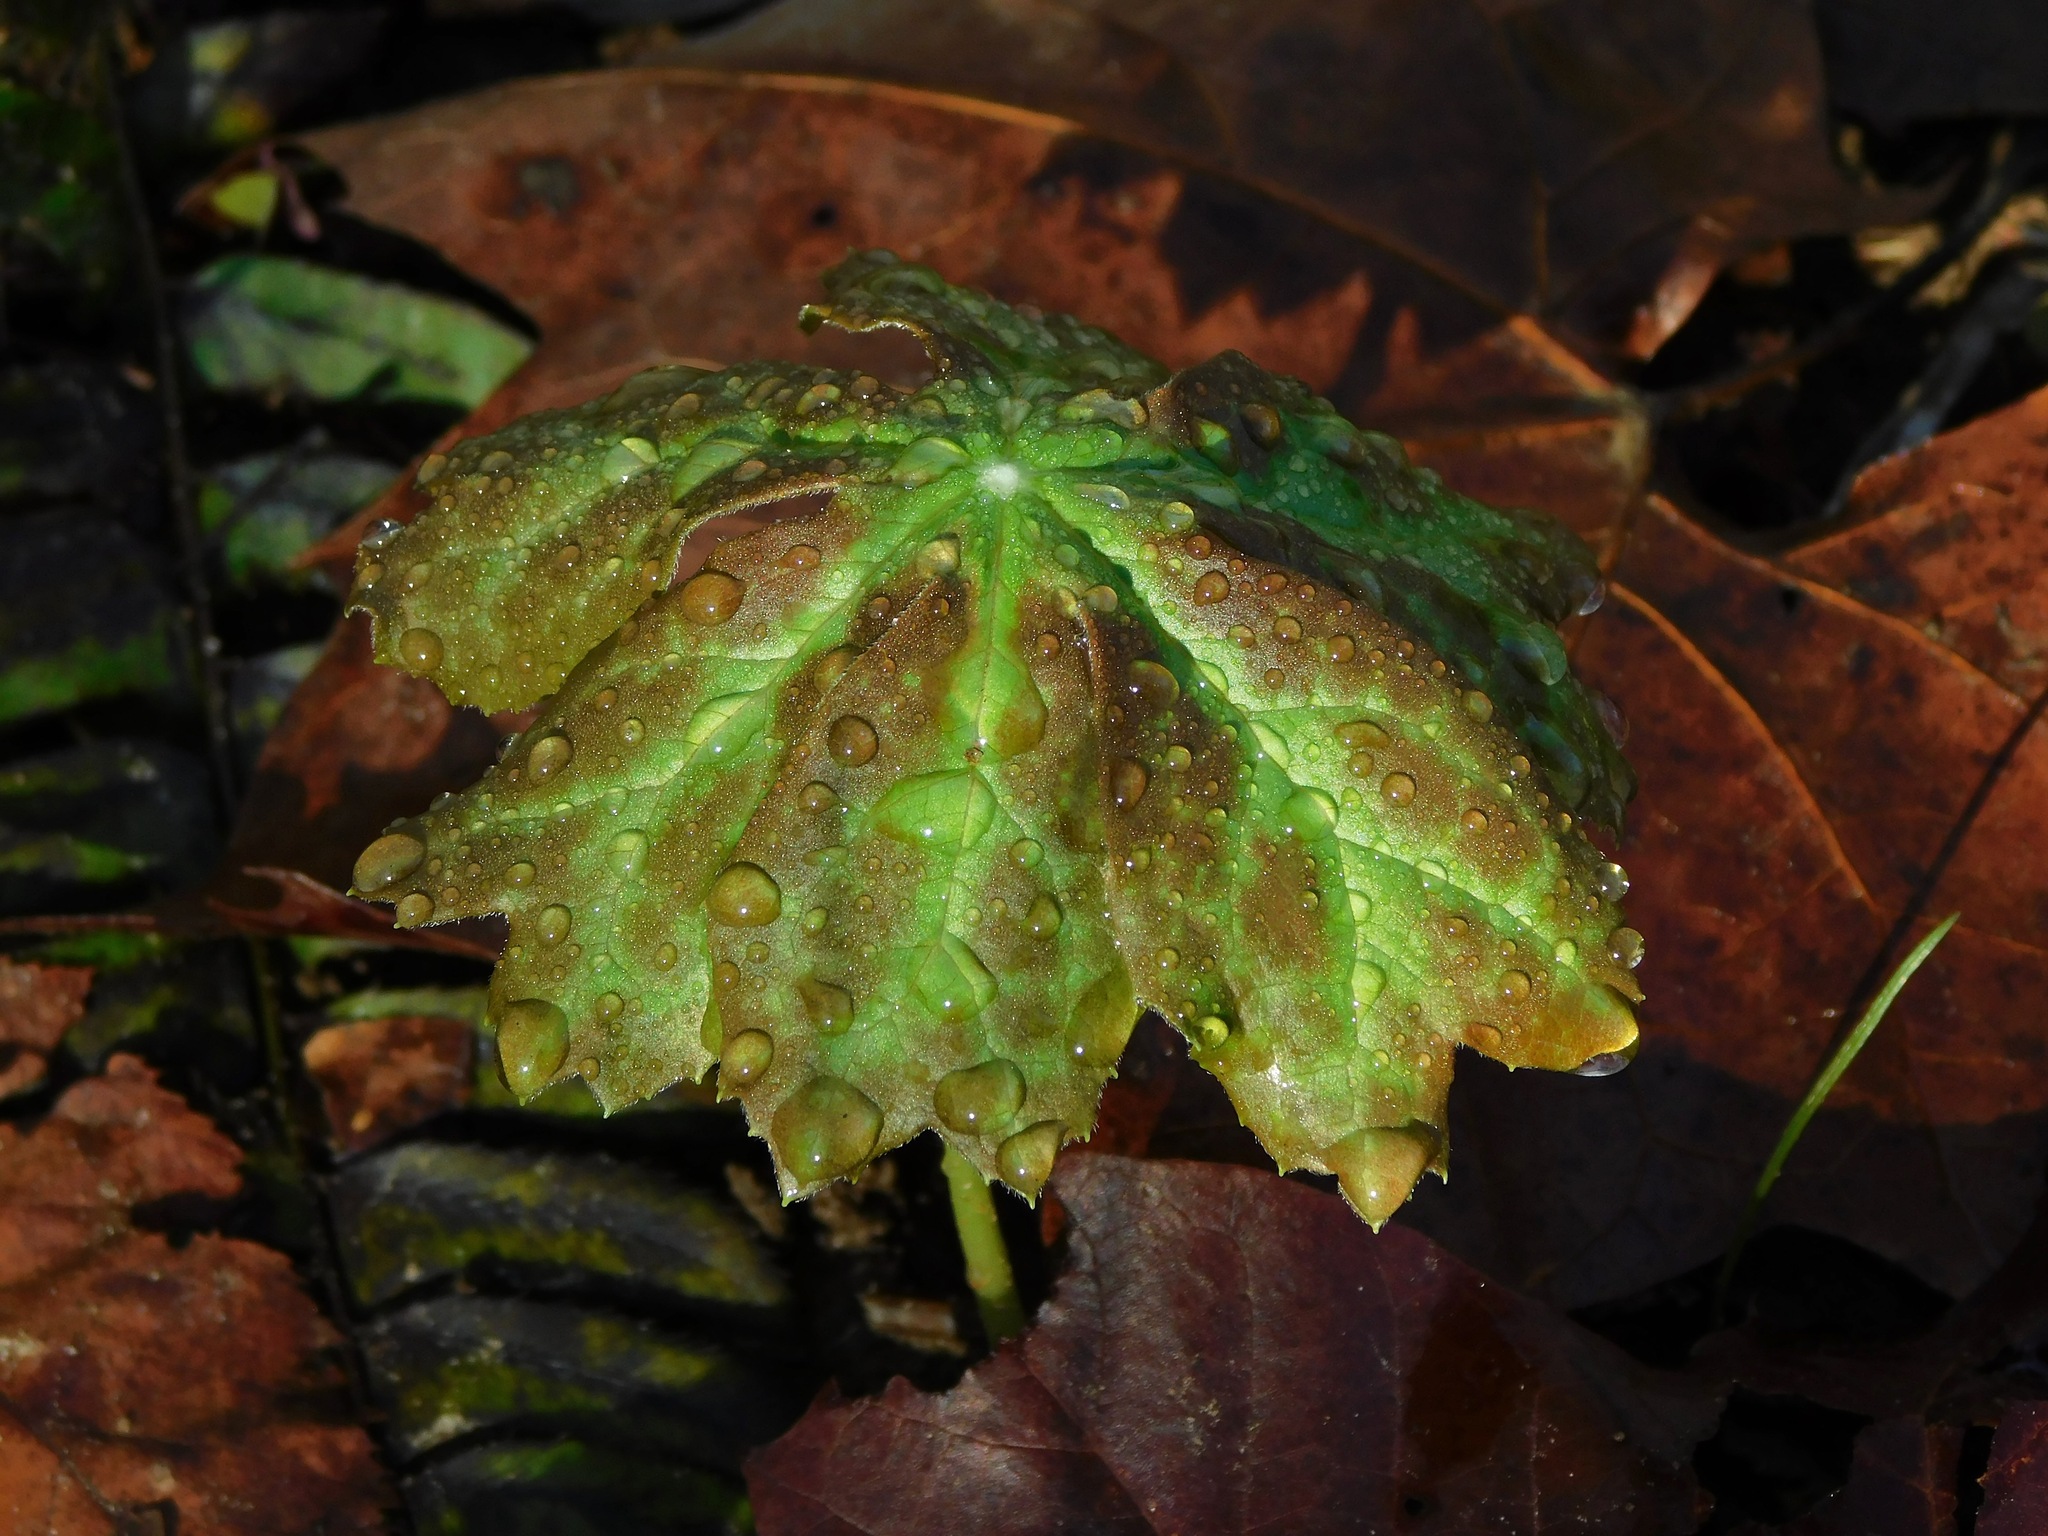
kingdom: Plantae
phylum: Tracheophyta
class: Magnoliopsida
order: Ranunculales
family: Berberidaceae
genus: Podophyllum
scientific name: Podophyllum peltatum
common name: Wild mandrake
